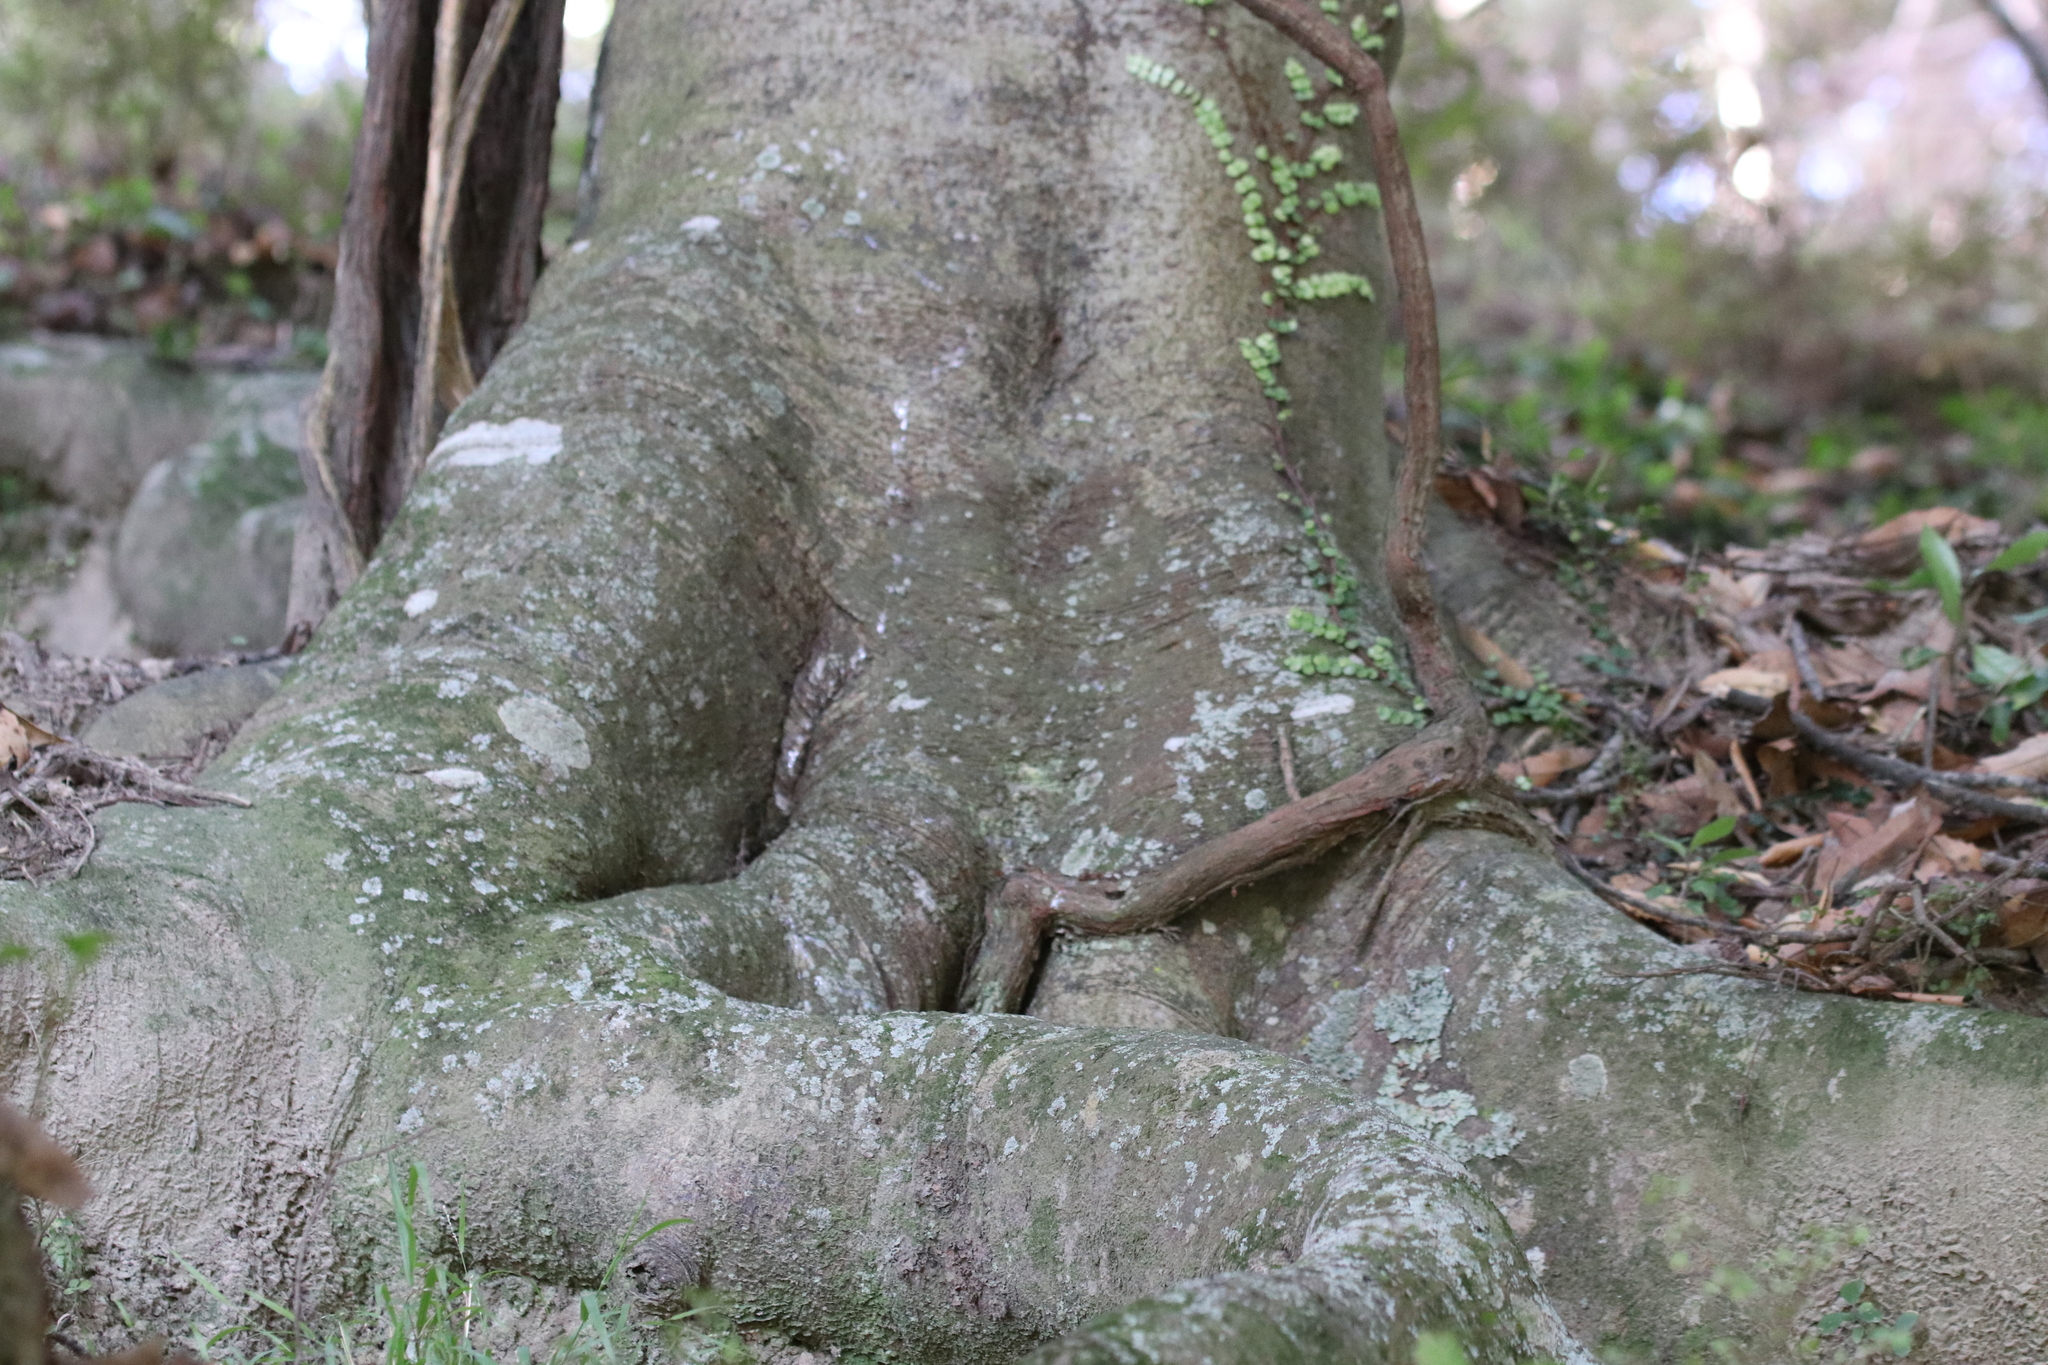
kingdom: Plantae
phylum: Tracheophyta
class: Magnoliopsida
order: Proteales
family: Proteaceae
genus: Knightia
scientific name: Knightia excelsa
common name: New zealand-honeysuckle
